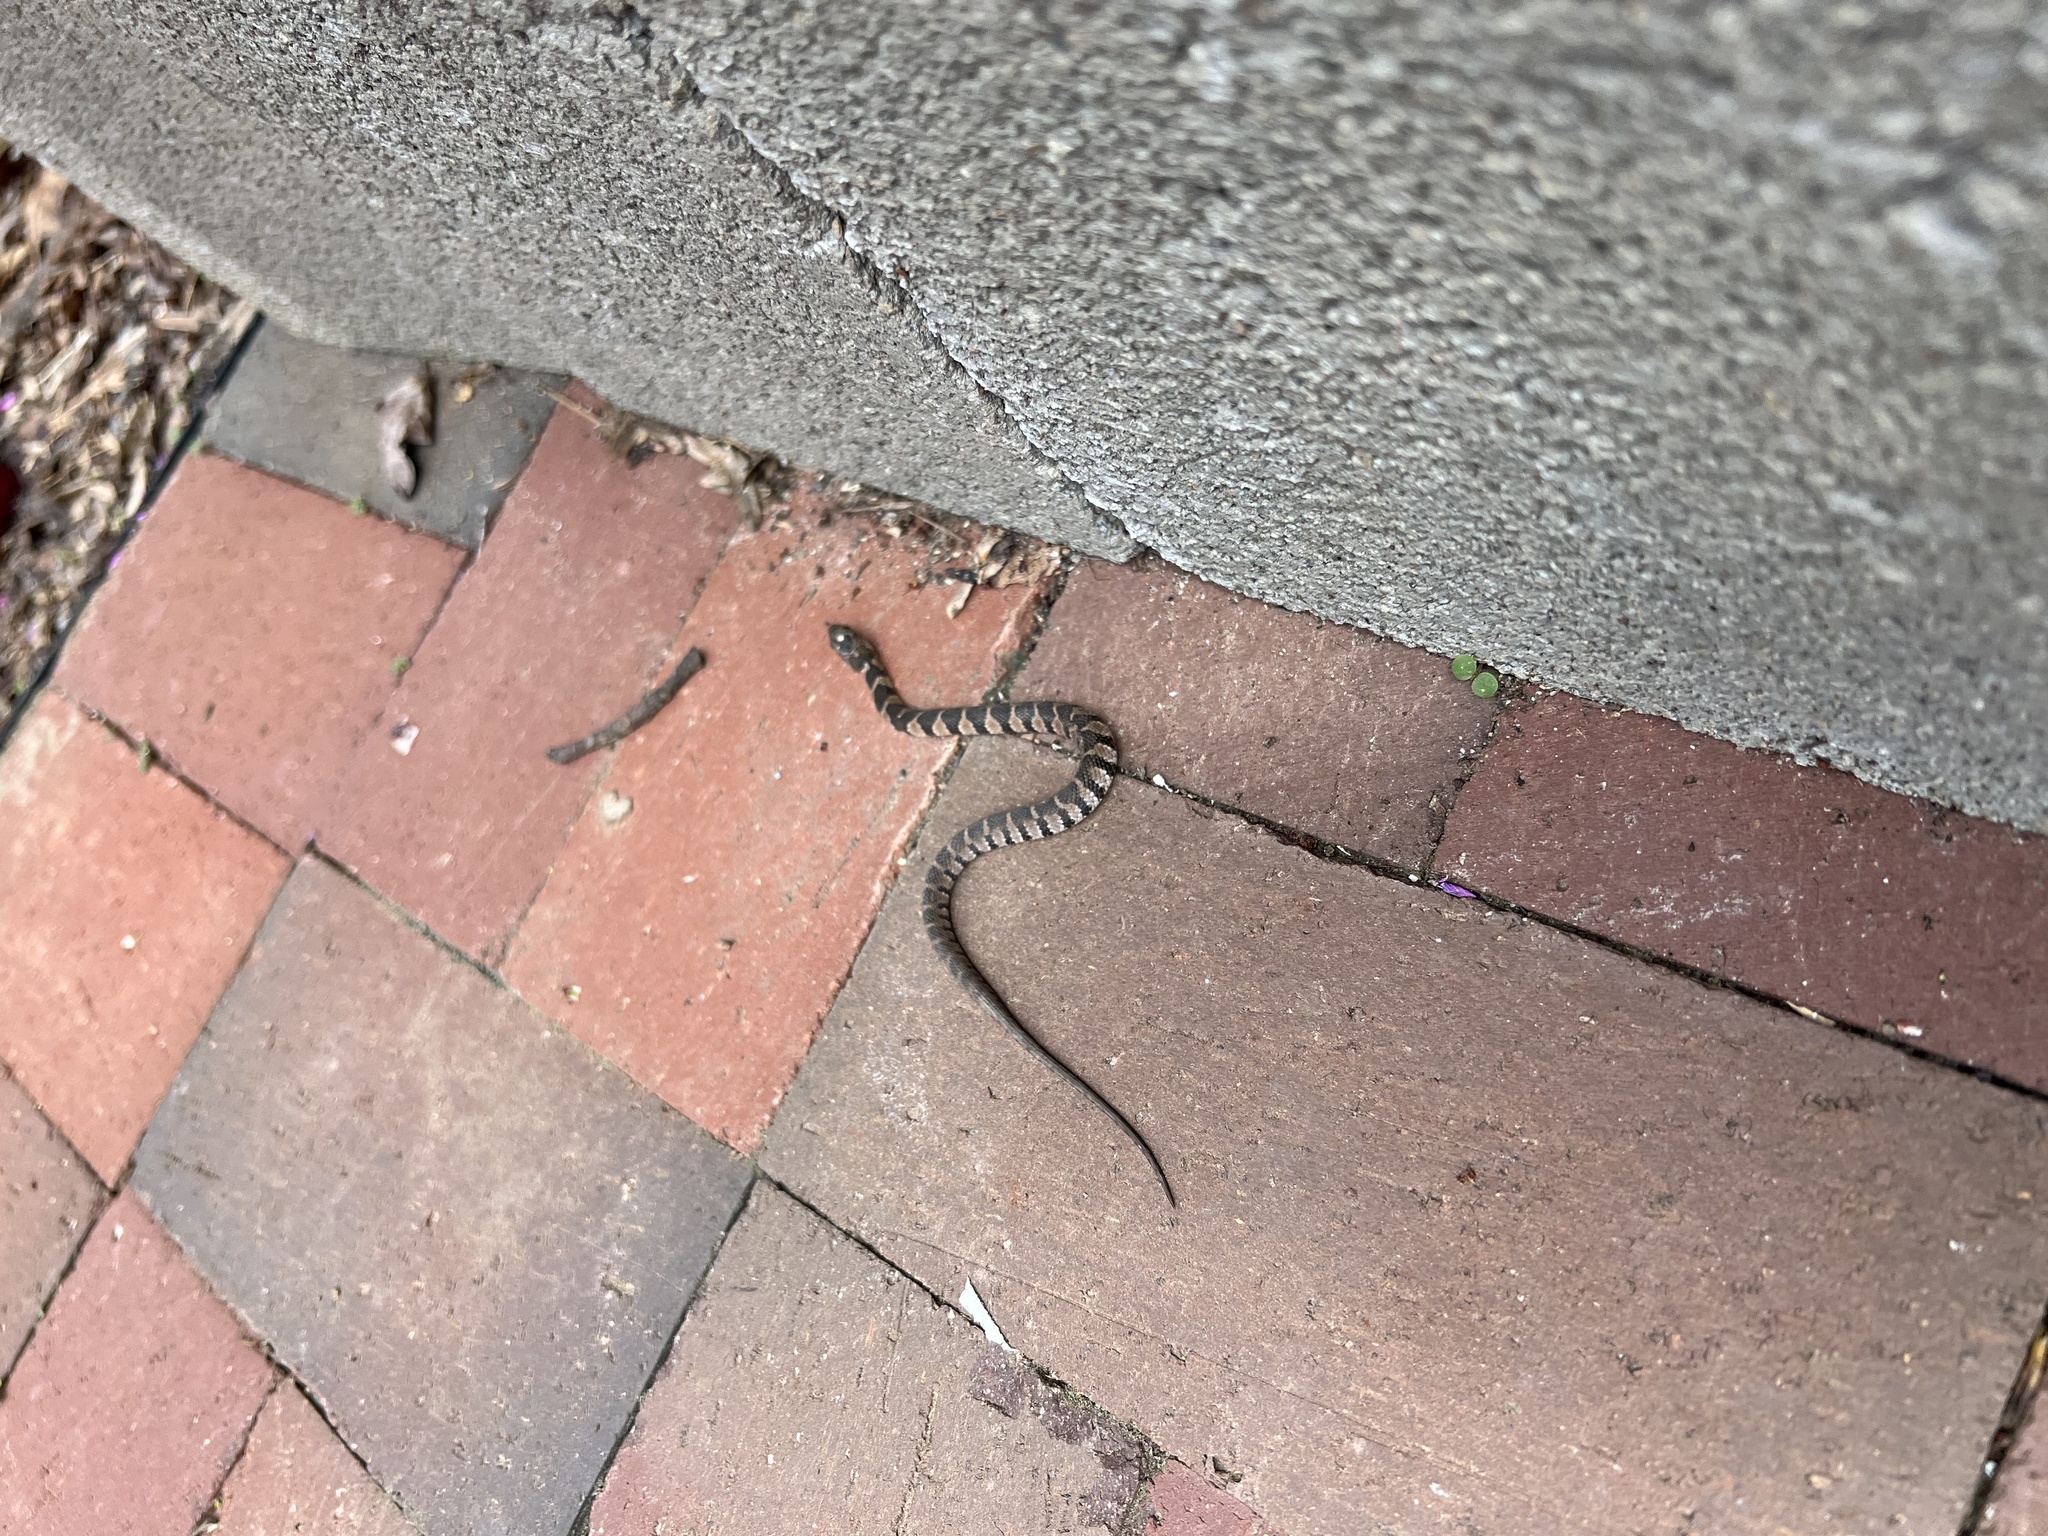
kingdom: Animalia
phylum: Chordata
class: Squamata
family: Colubridae
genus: Nerodia
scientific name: Nerodia sipedon
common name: Northern water snake
